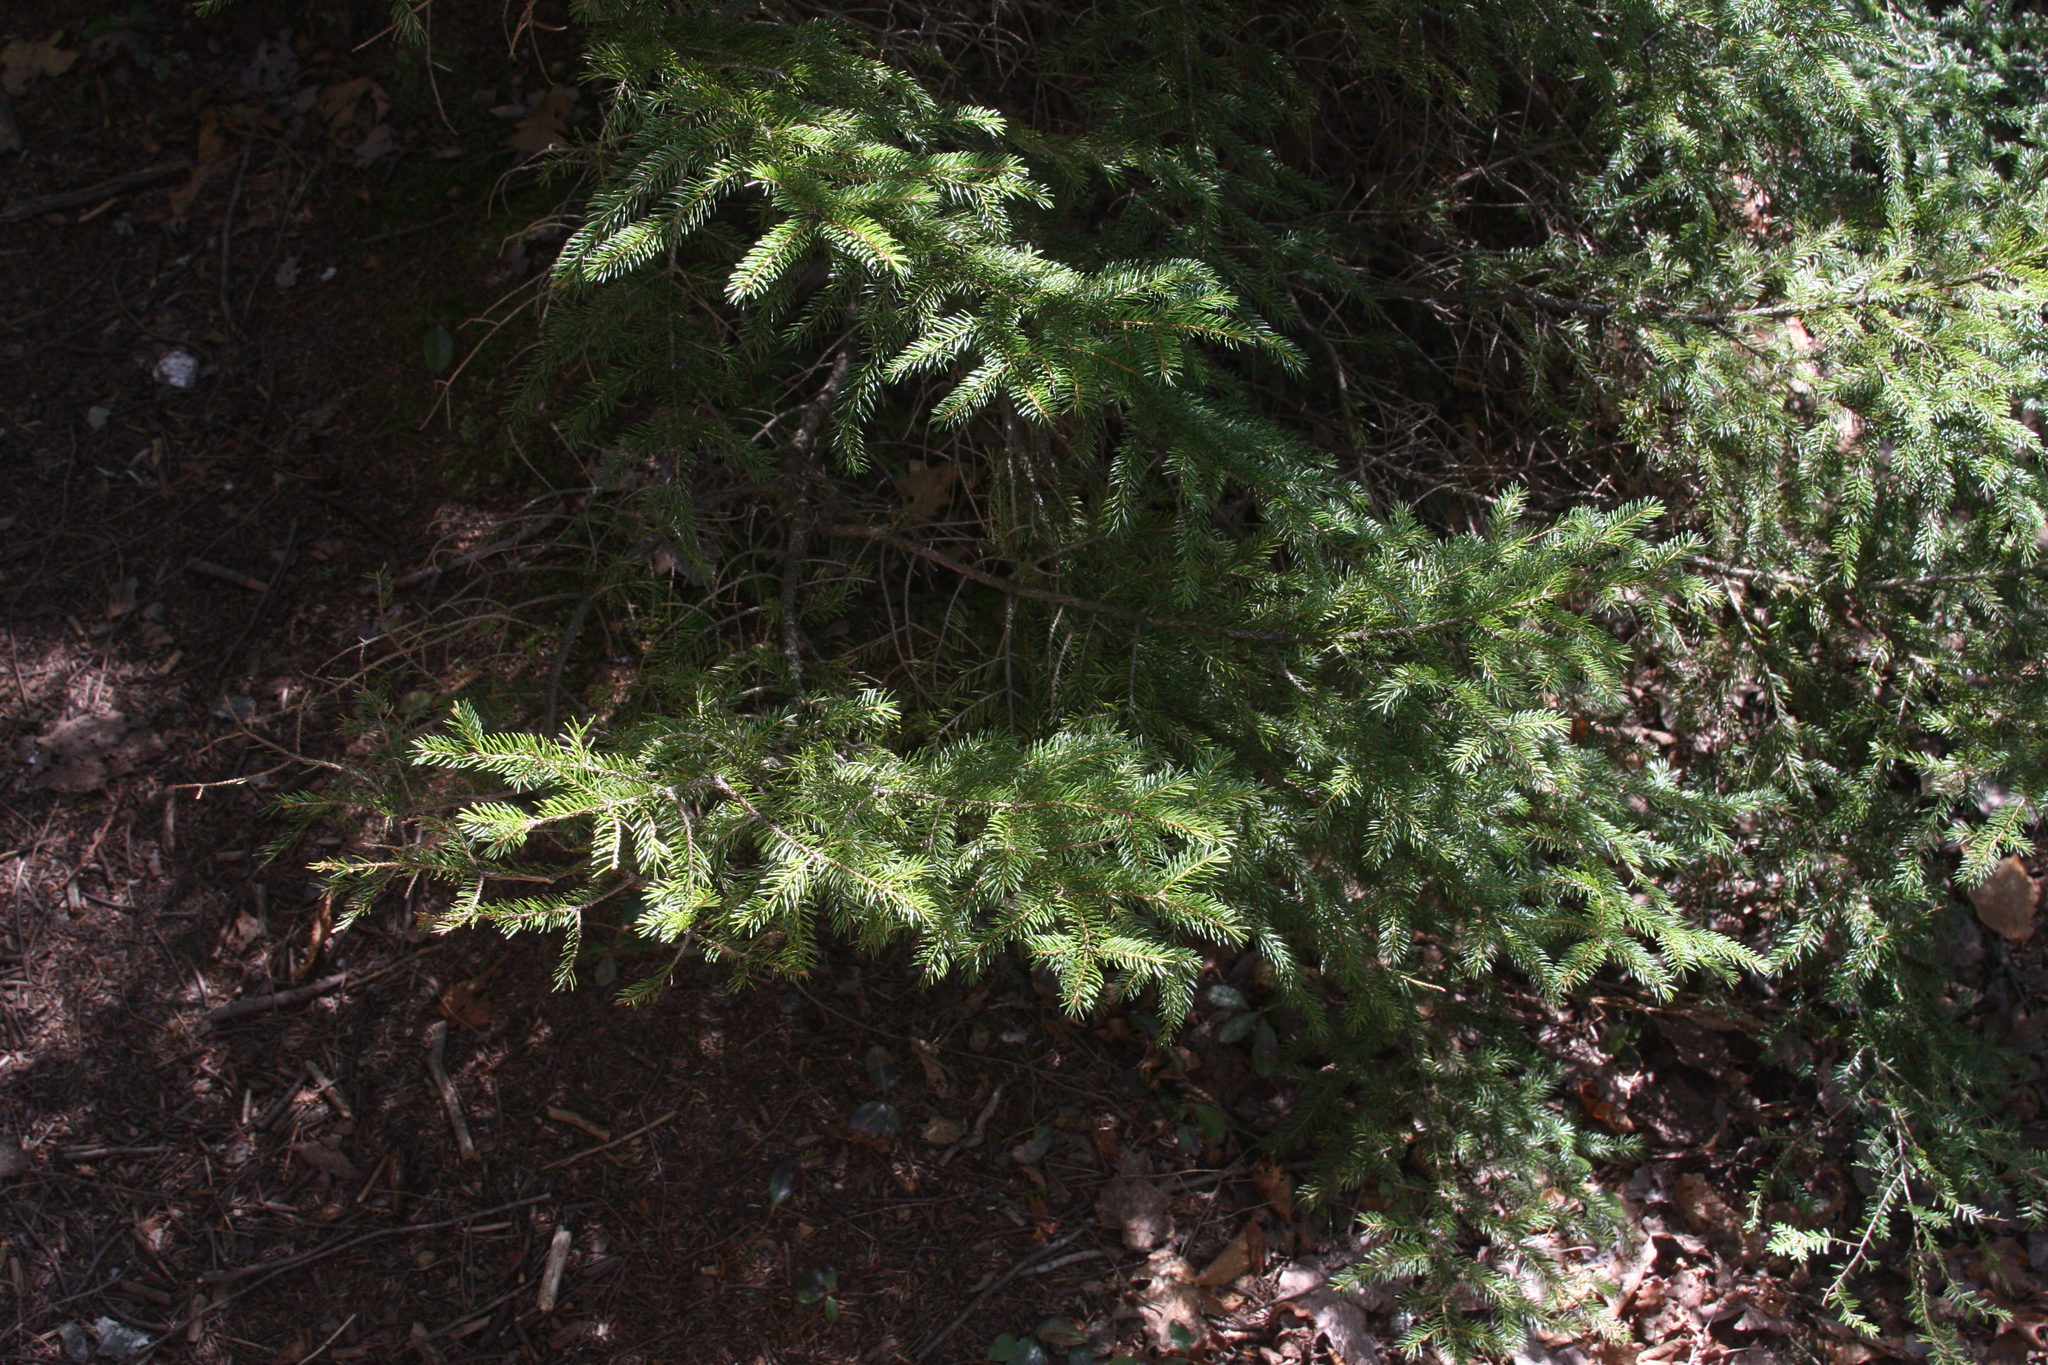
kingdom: Plantae
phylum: Tracheophyta
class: Pinopsida
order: Pinales
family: Pinaceae
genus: Picea
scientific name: Picea rubens
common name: Red spruce
